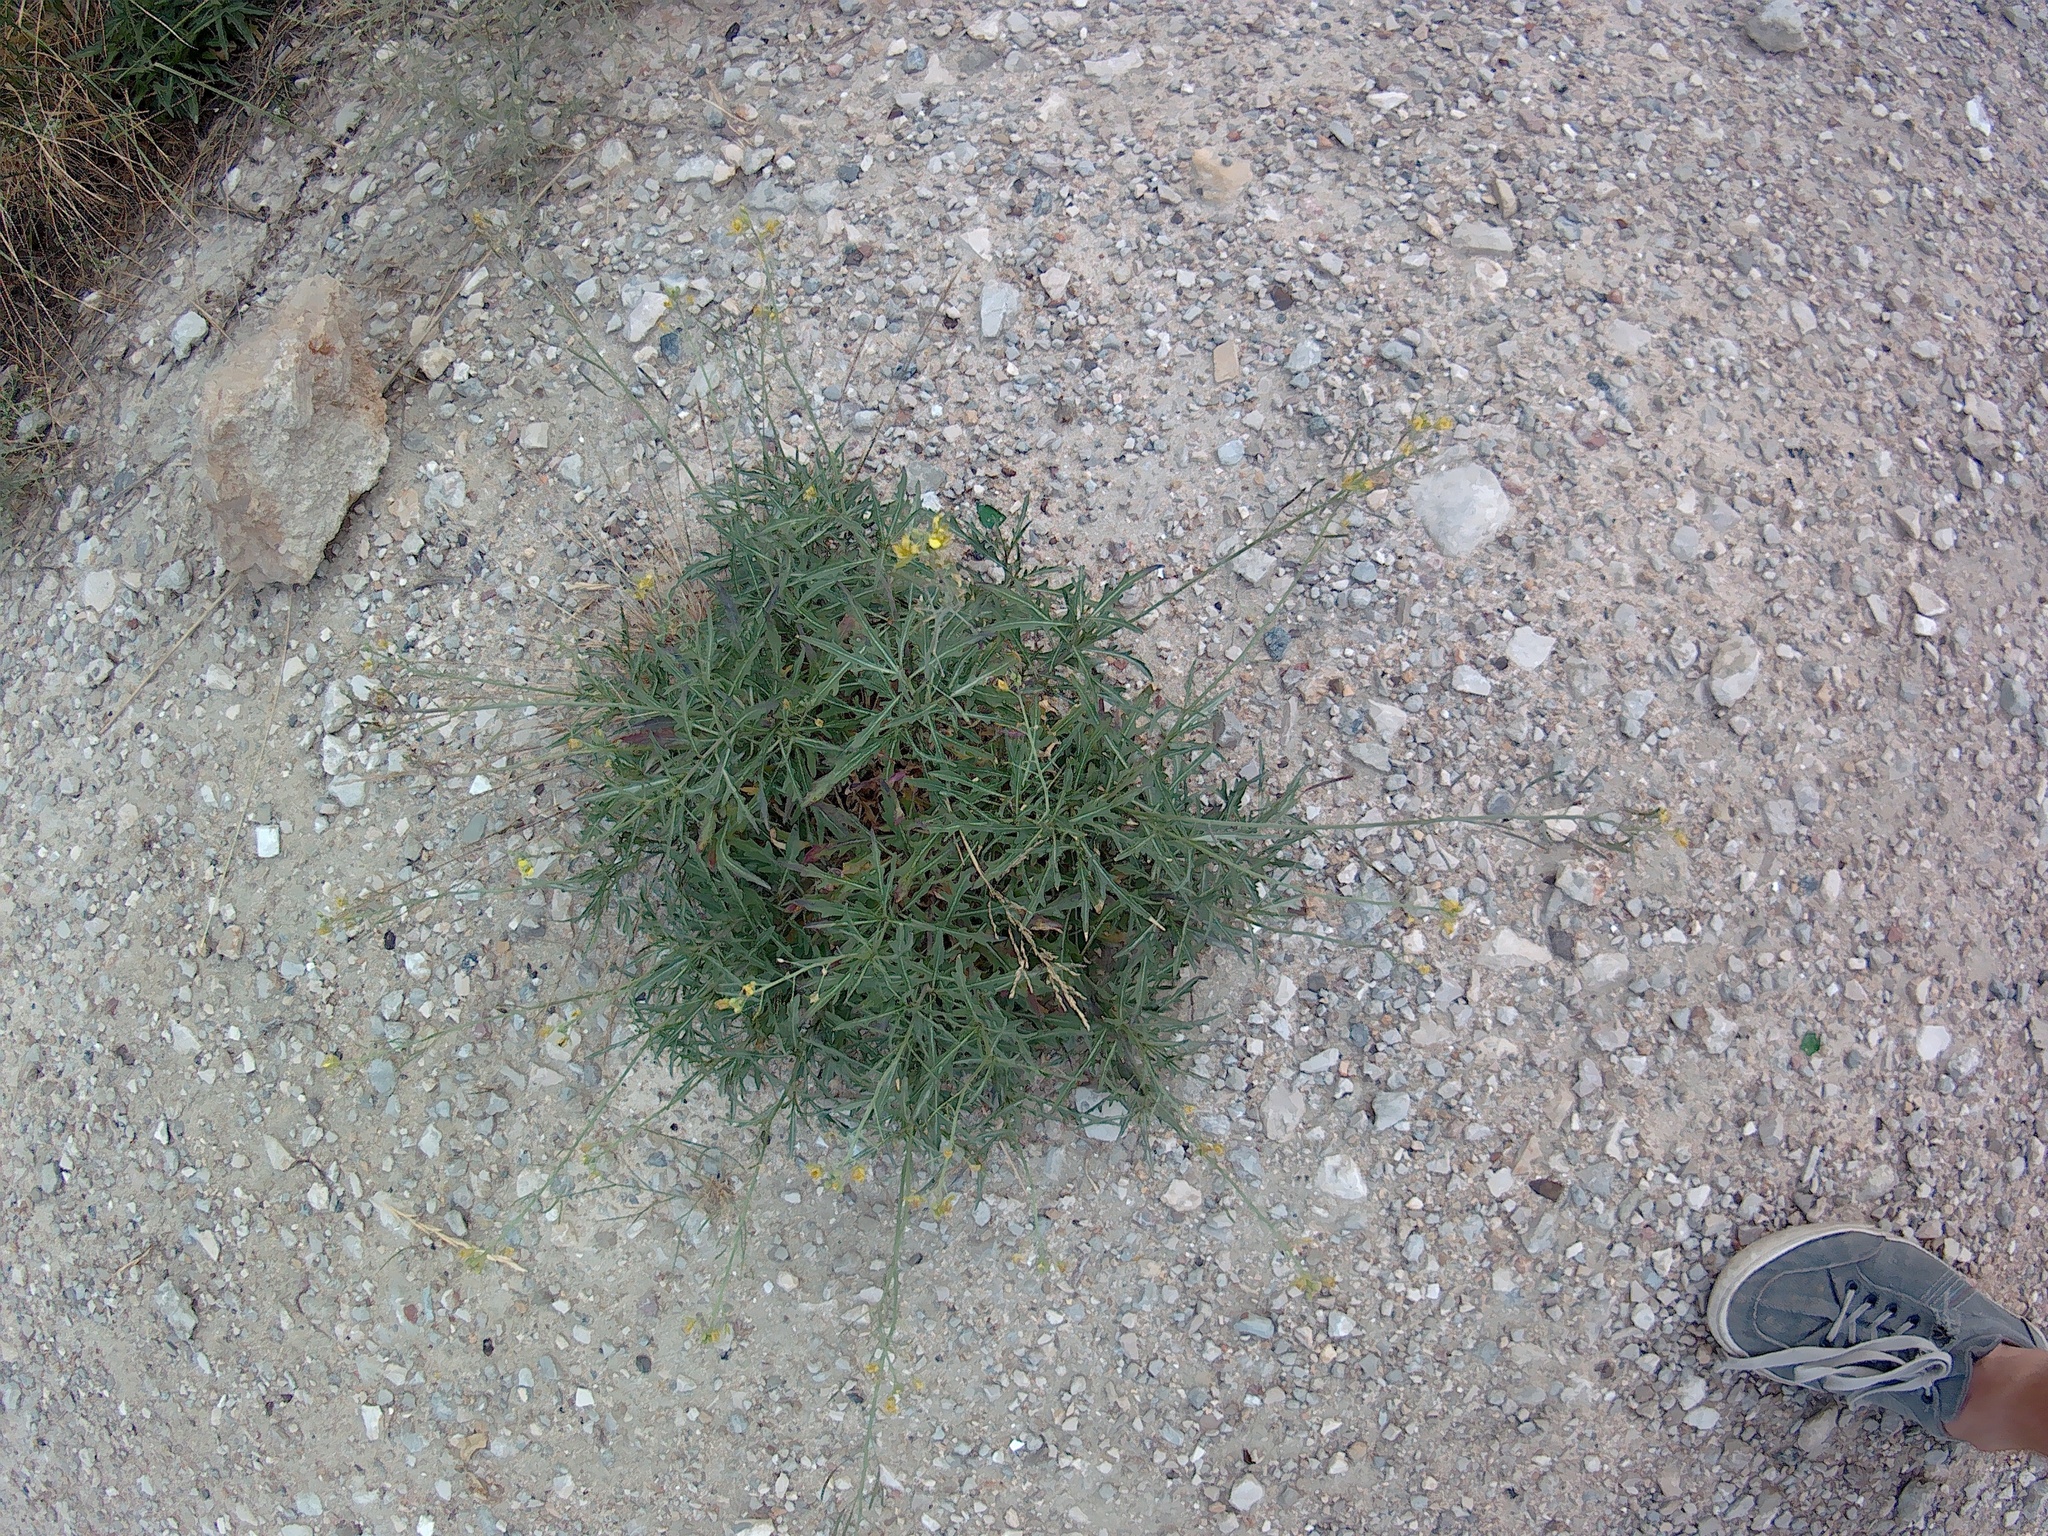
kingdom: Plantae
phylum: Tracheophyta
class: Magnoliopsida
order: Brassicales
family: Brassicaceae
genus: Diplotaxis
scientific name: Diplotaxis tenuifolia
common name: Perennial wall-rocket
